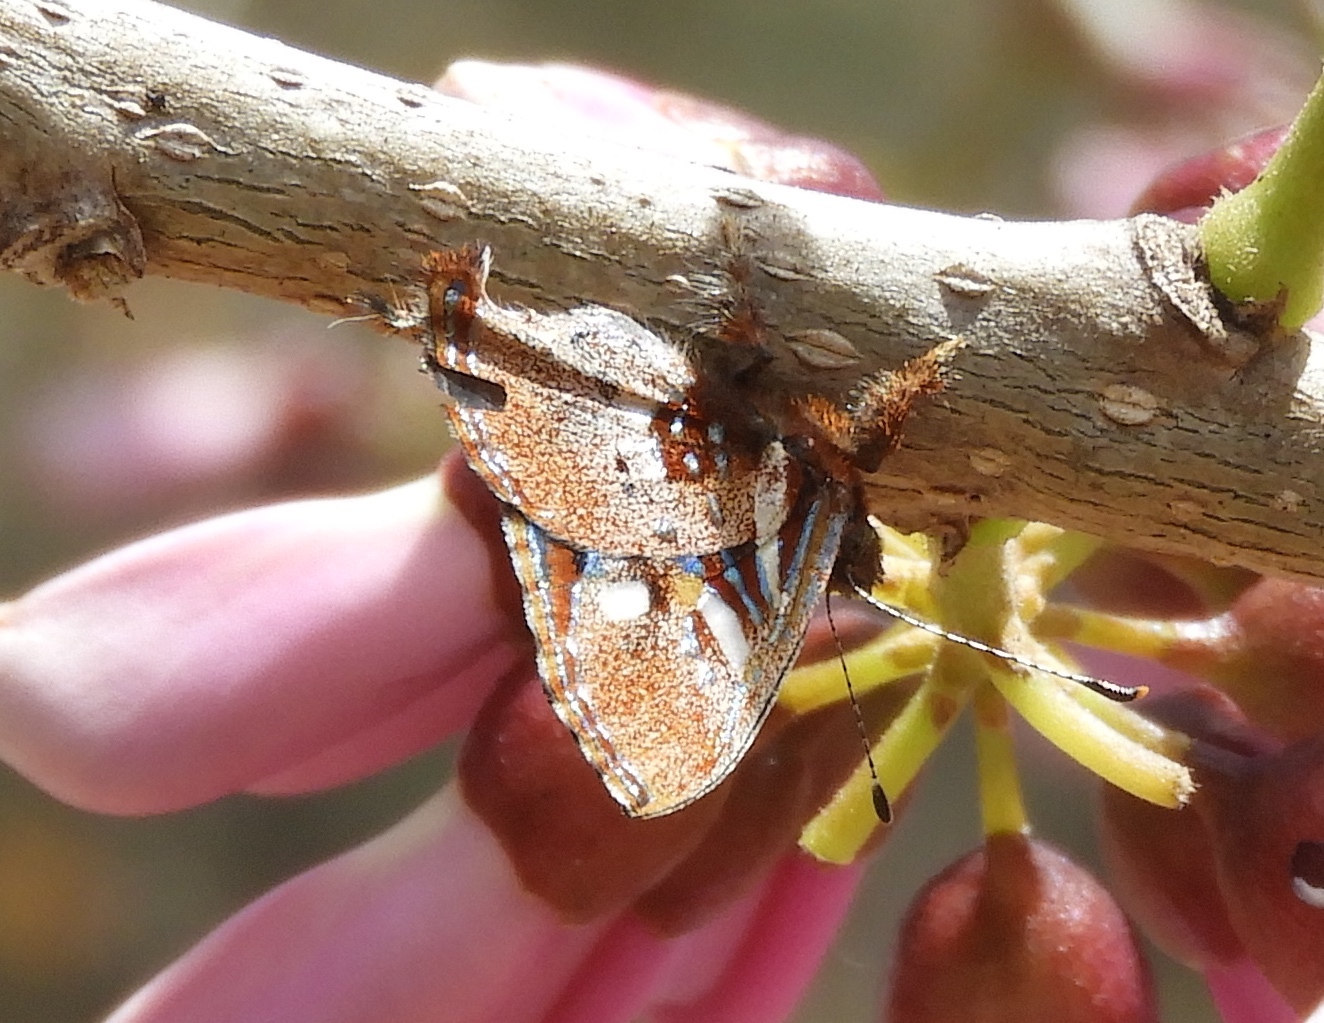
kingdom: Animalia
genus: Anteros
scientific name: Anteros carausius
